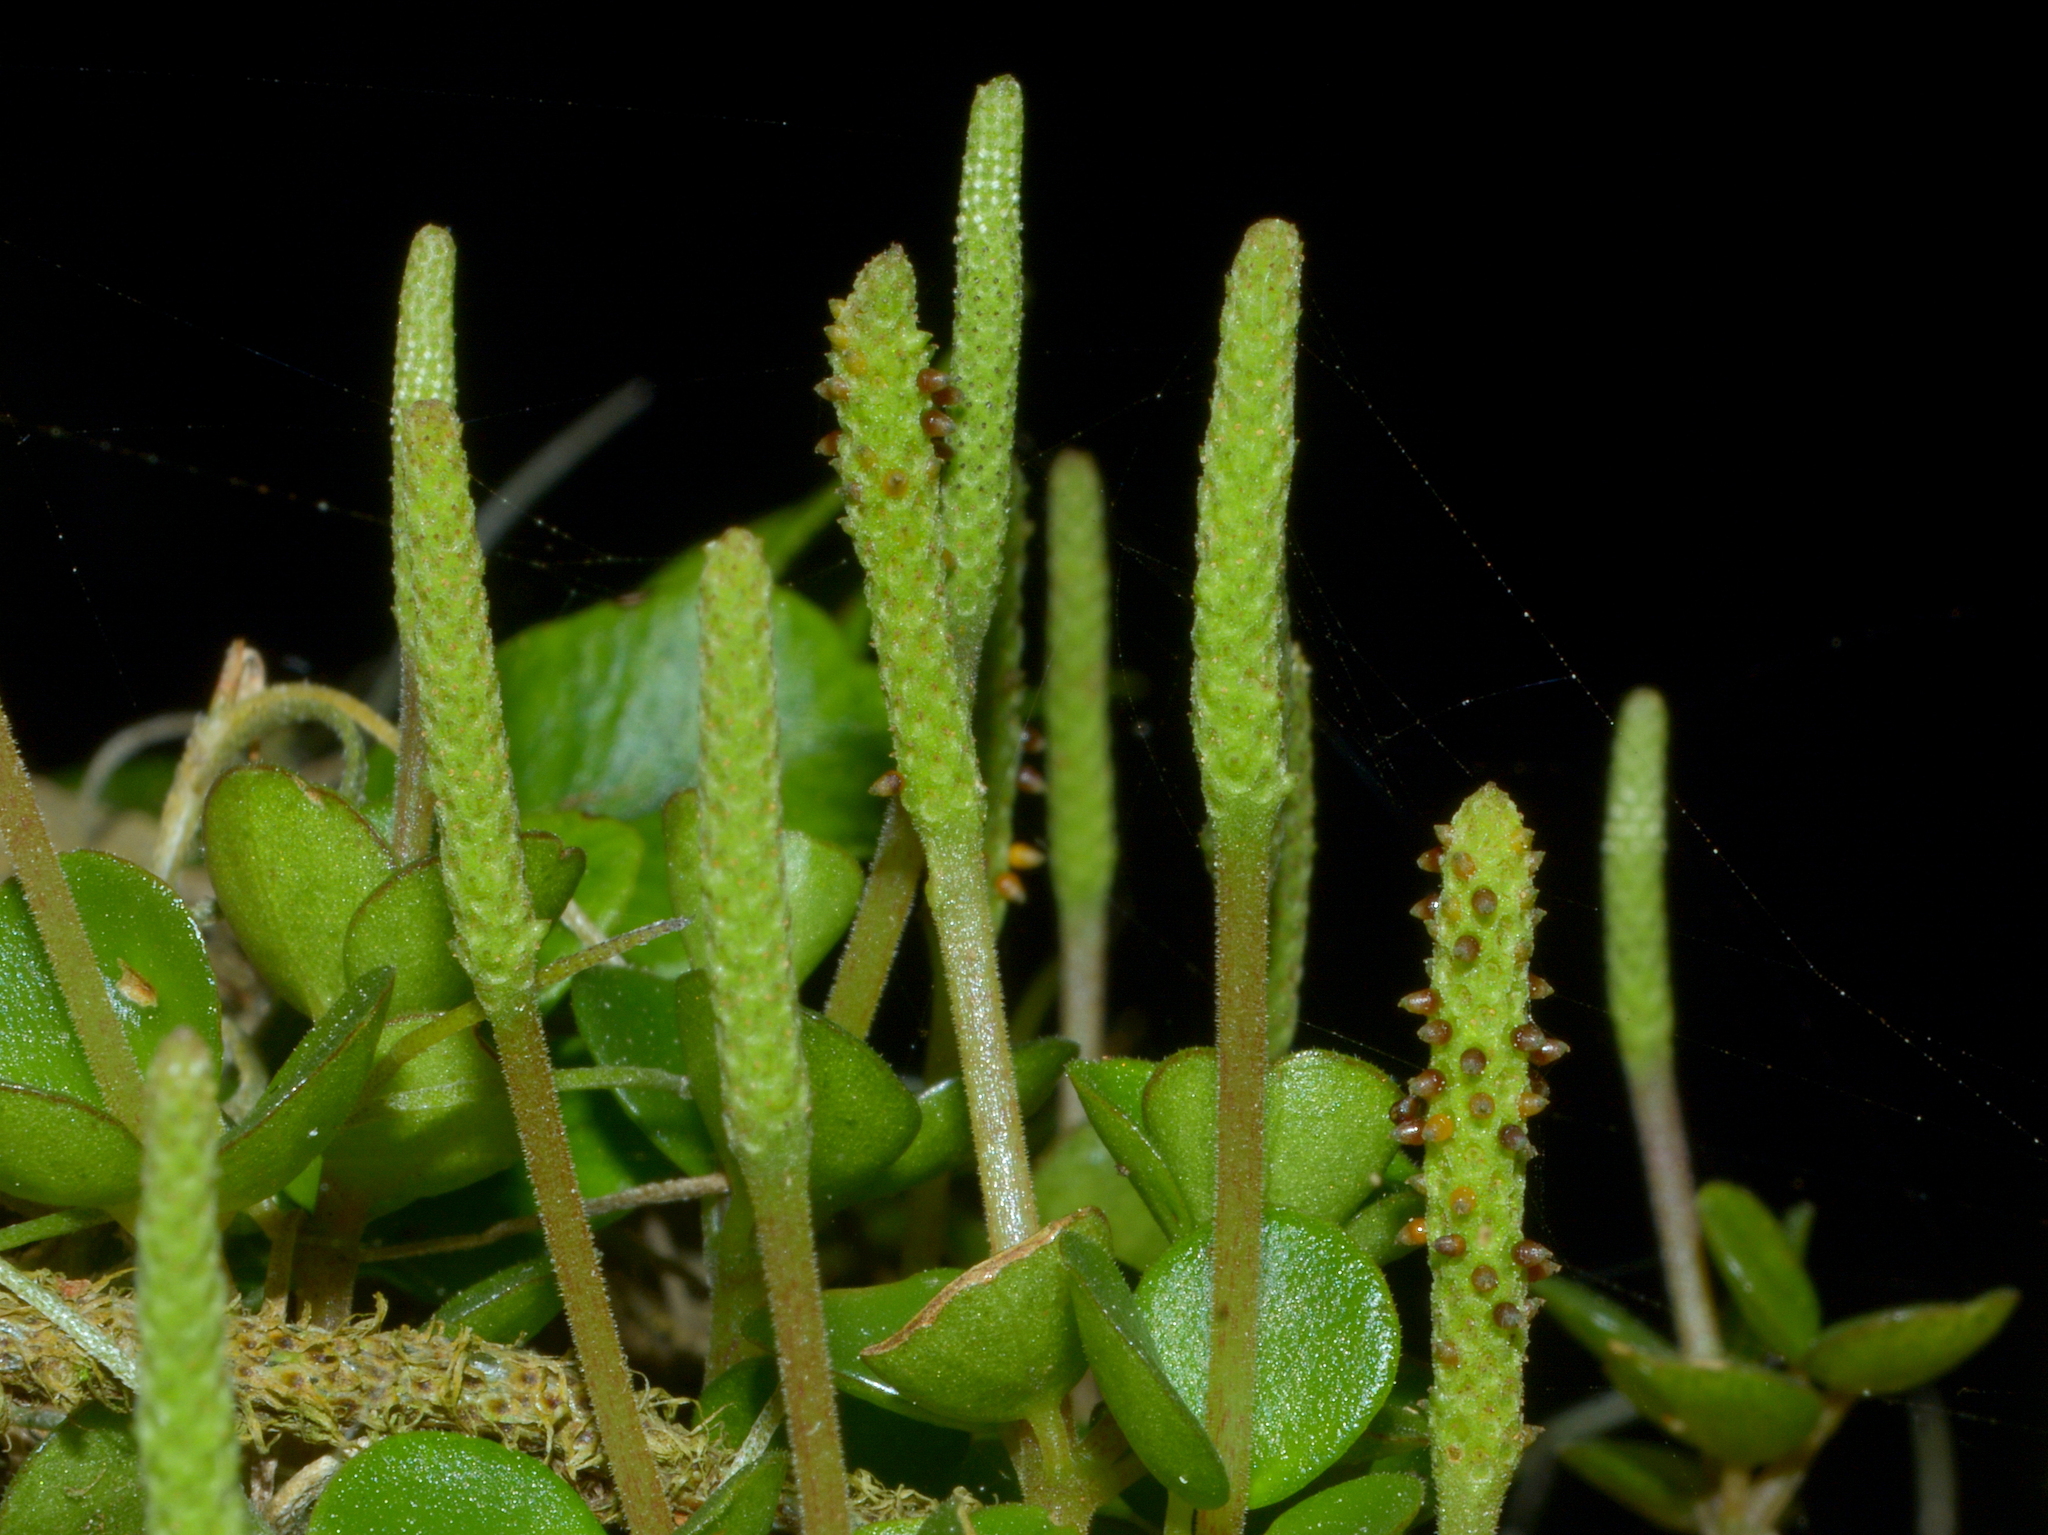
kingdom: Plantae
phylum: Tracheophyta
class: Magnoliopsida
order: Piperales
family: Piperaceae
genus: Peperomia
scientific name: Peperomia catharinae
